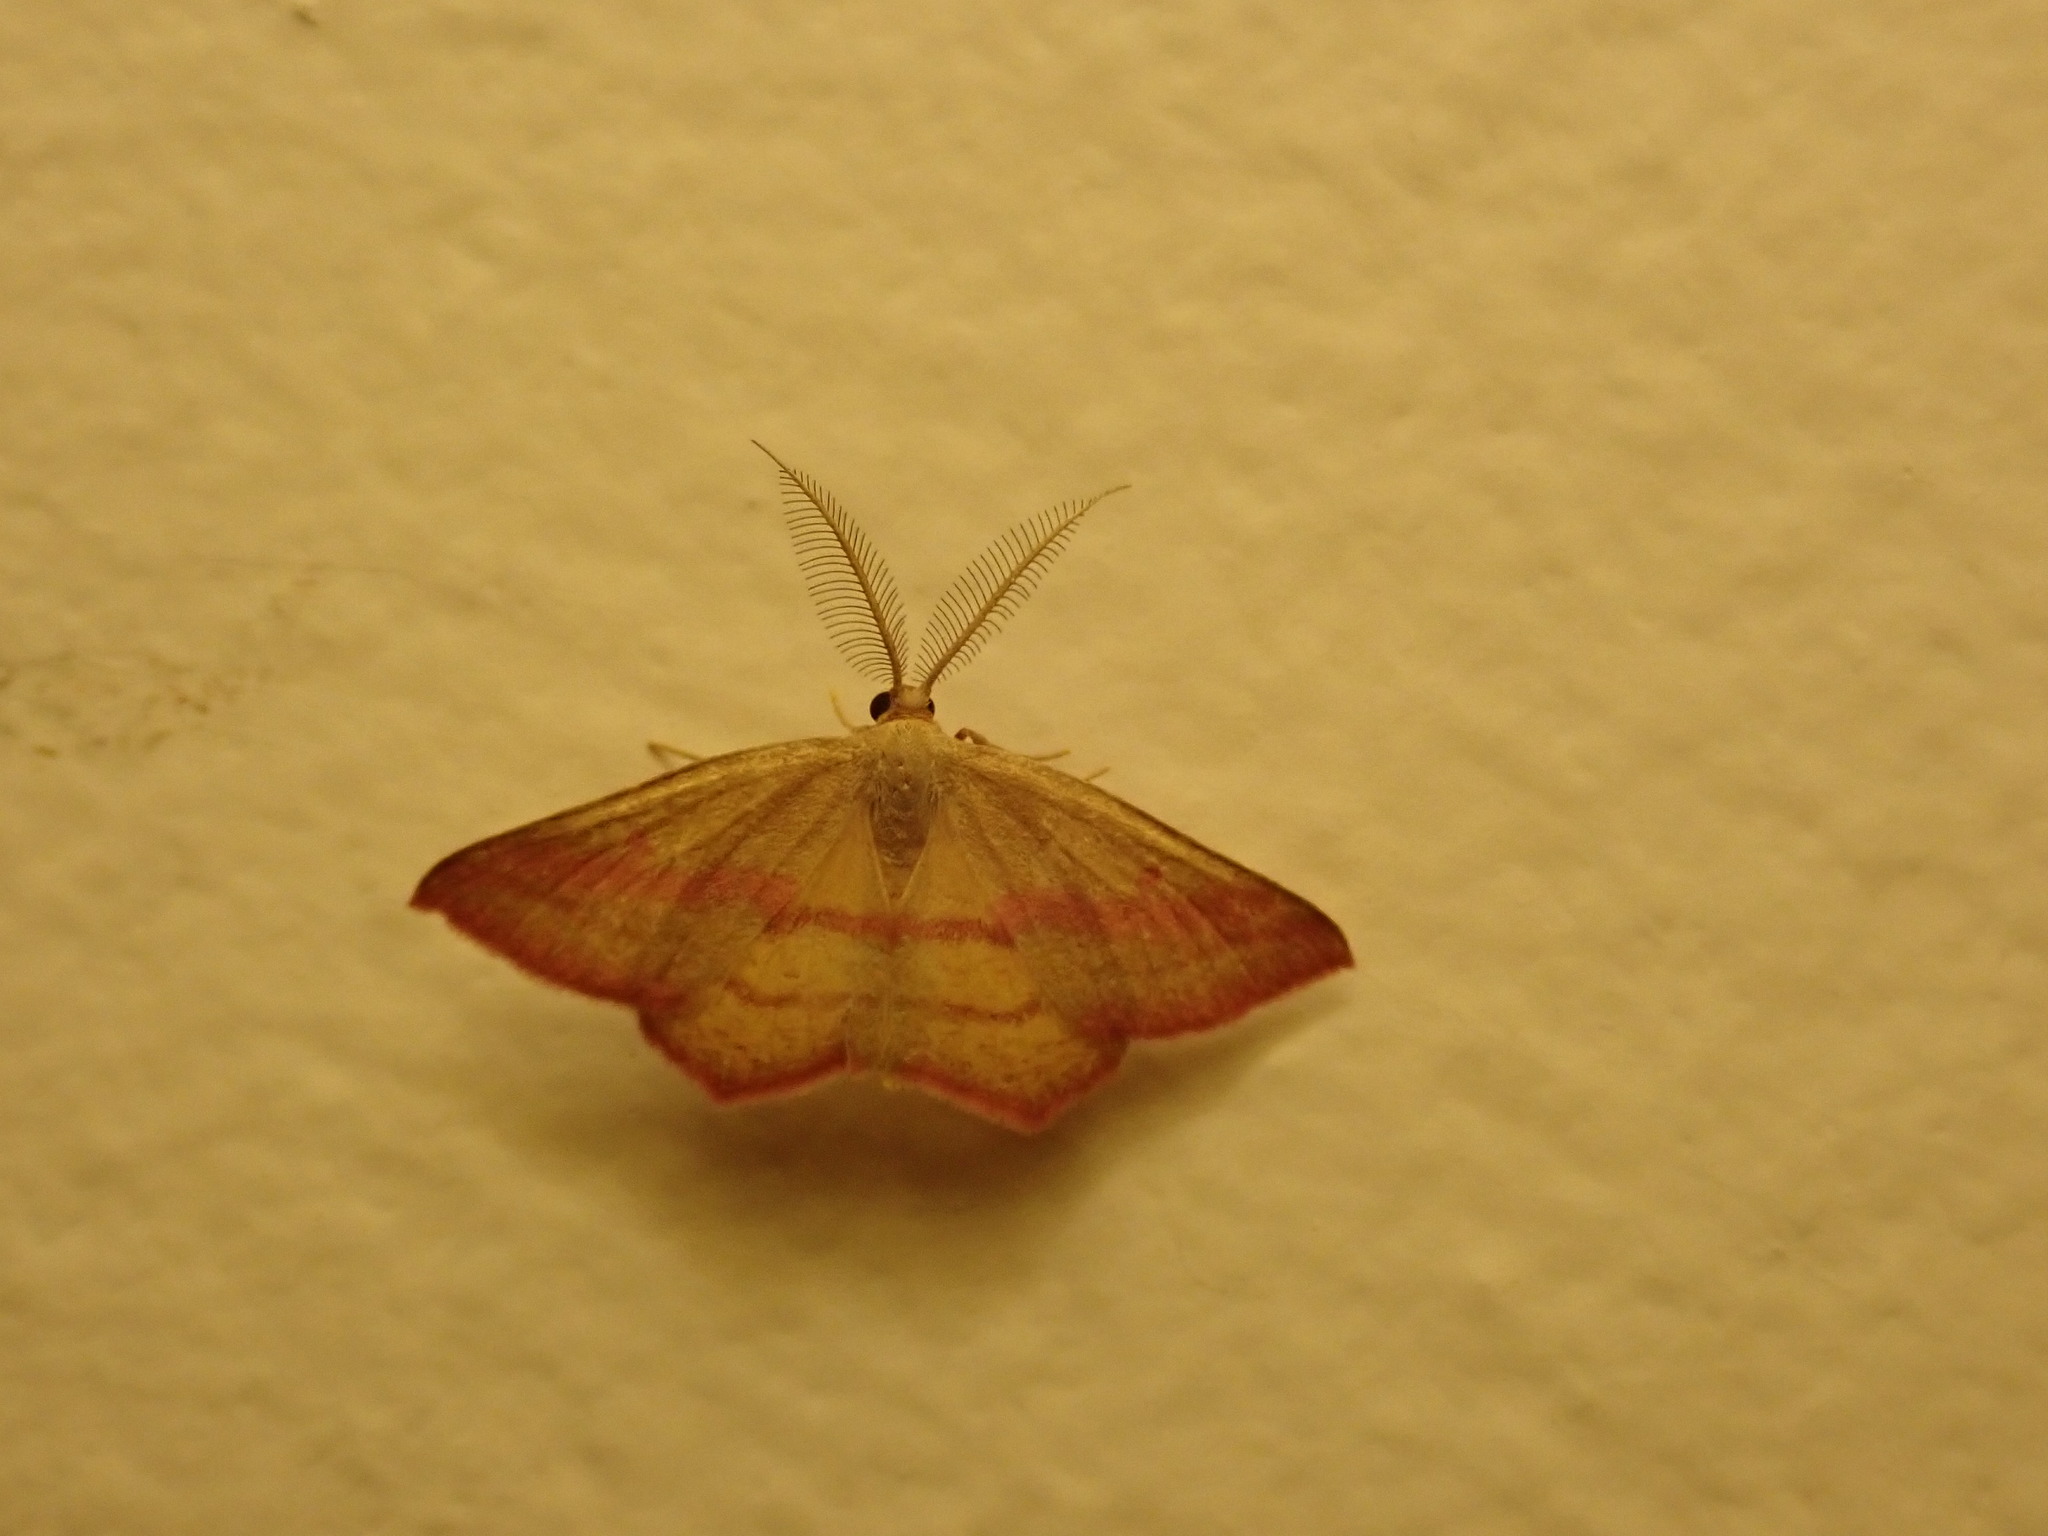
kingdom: Animalia
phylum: Arthropoda
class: Insecta
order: Lepidoptera
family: Geometridae
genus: Haematopis
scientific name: Haematopis grataria
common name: Chickweed geometer
